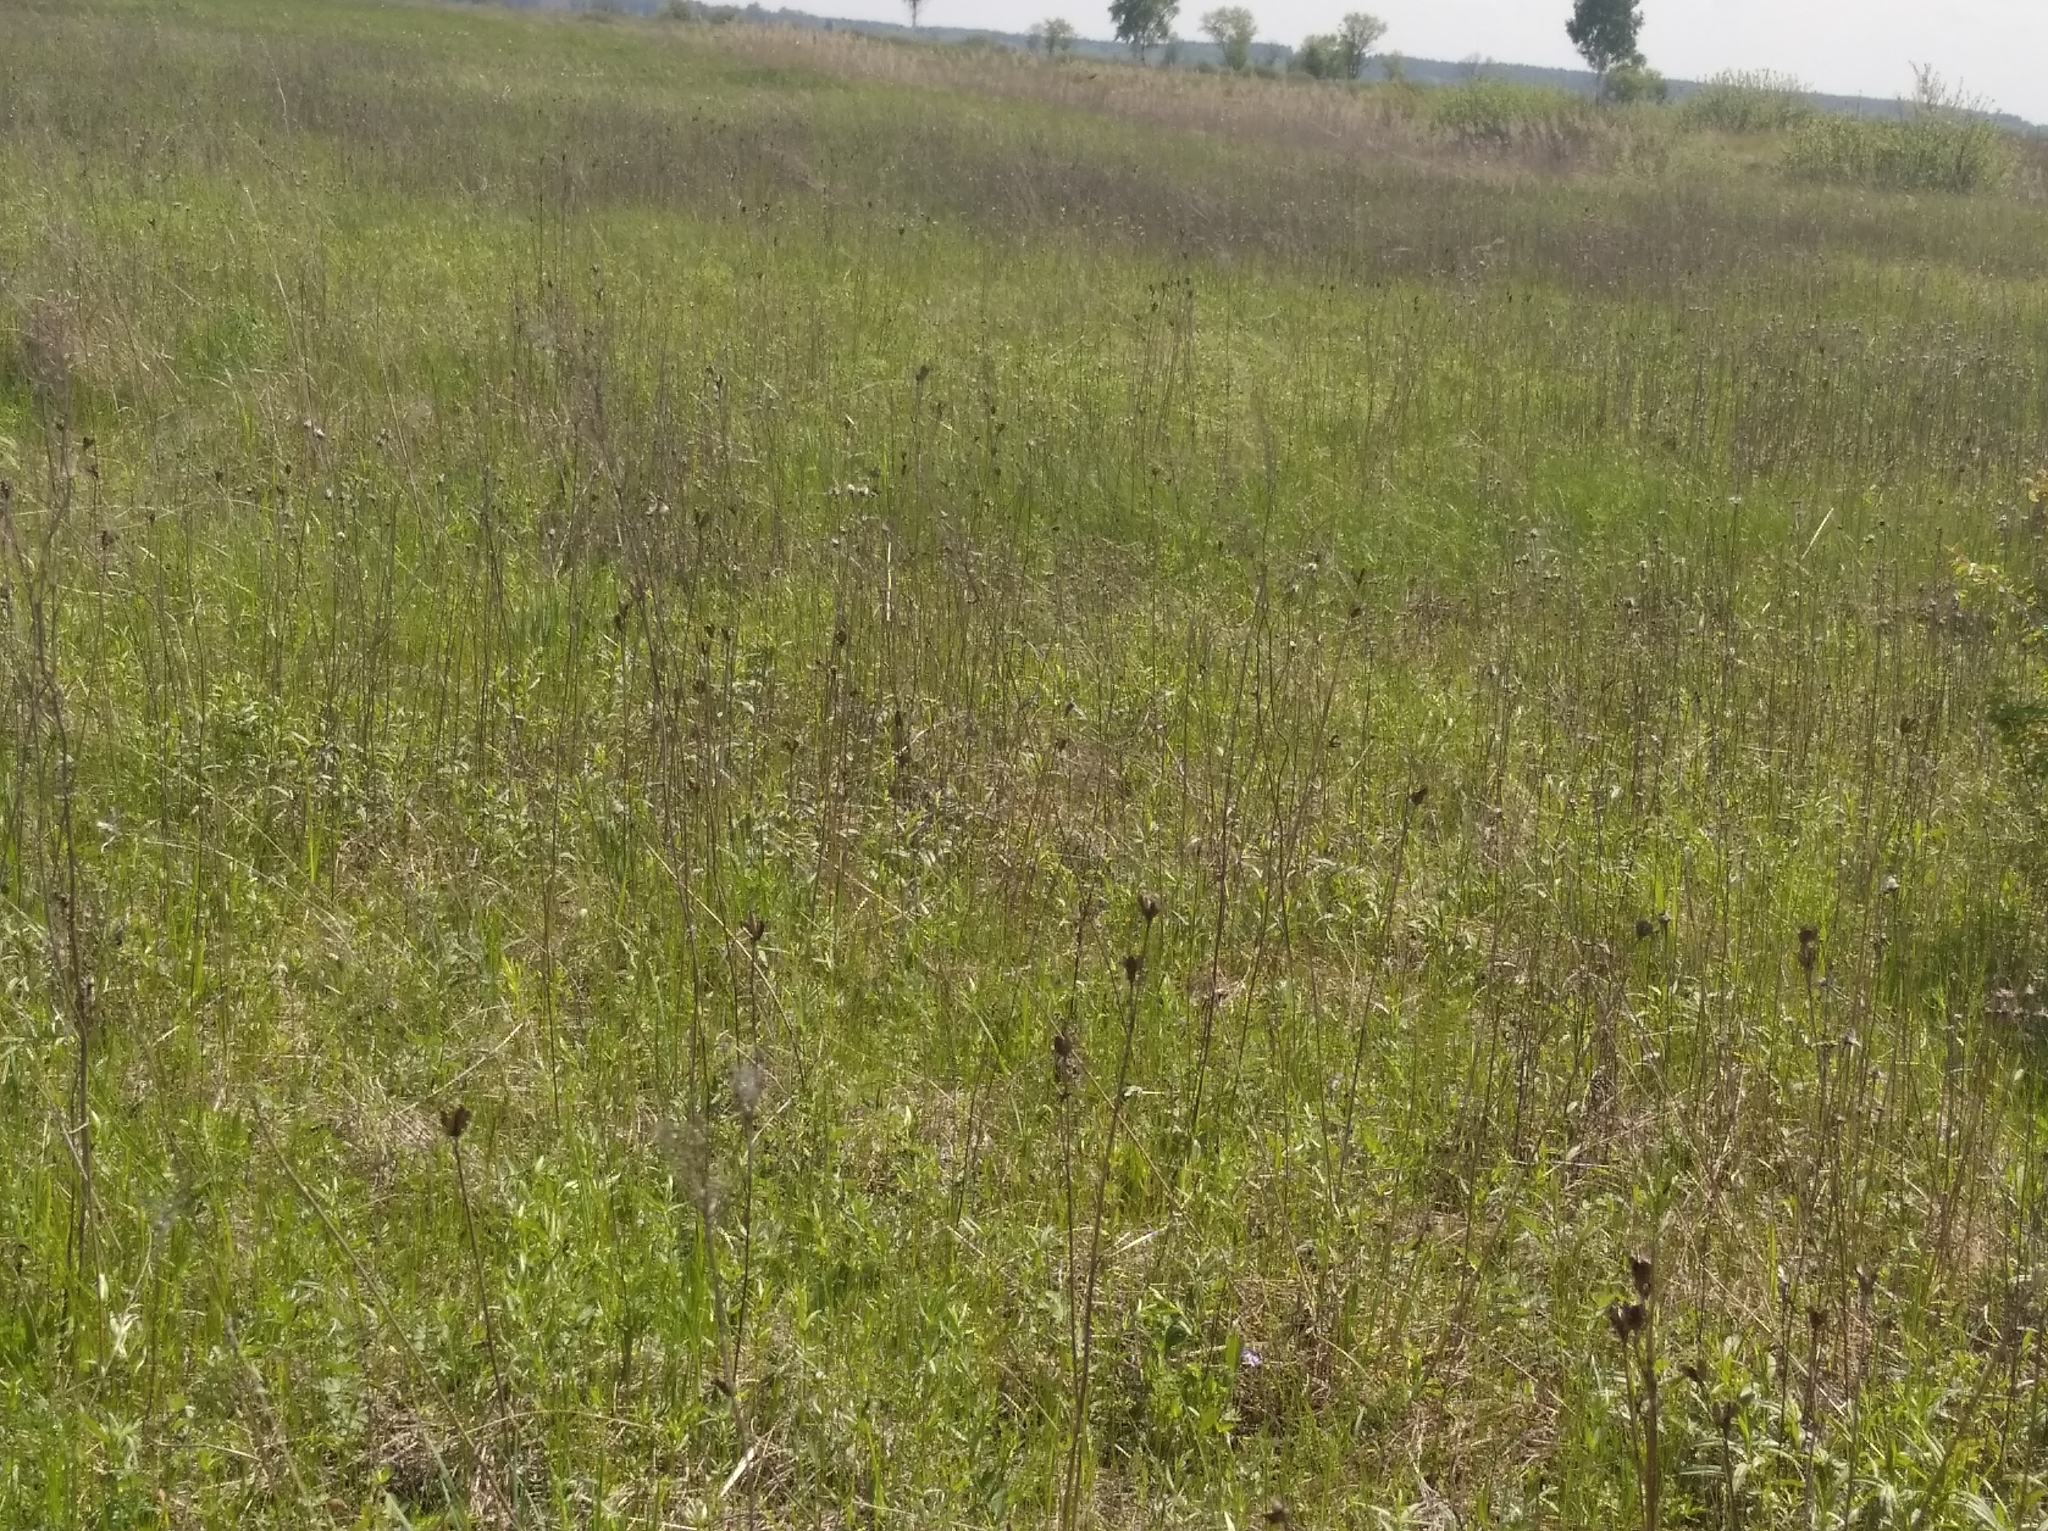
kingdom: Plantae
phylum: Tracheophyta
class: Liliopsida
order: Asparagales
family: Iridaceae
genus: Iris
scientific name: Iris sibirica
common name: Siberian iris
